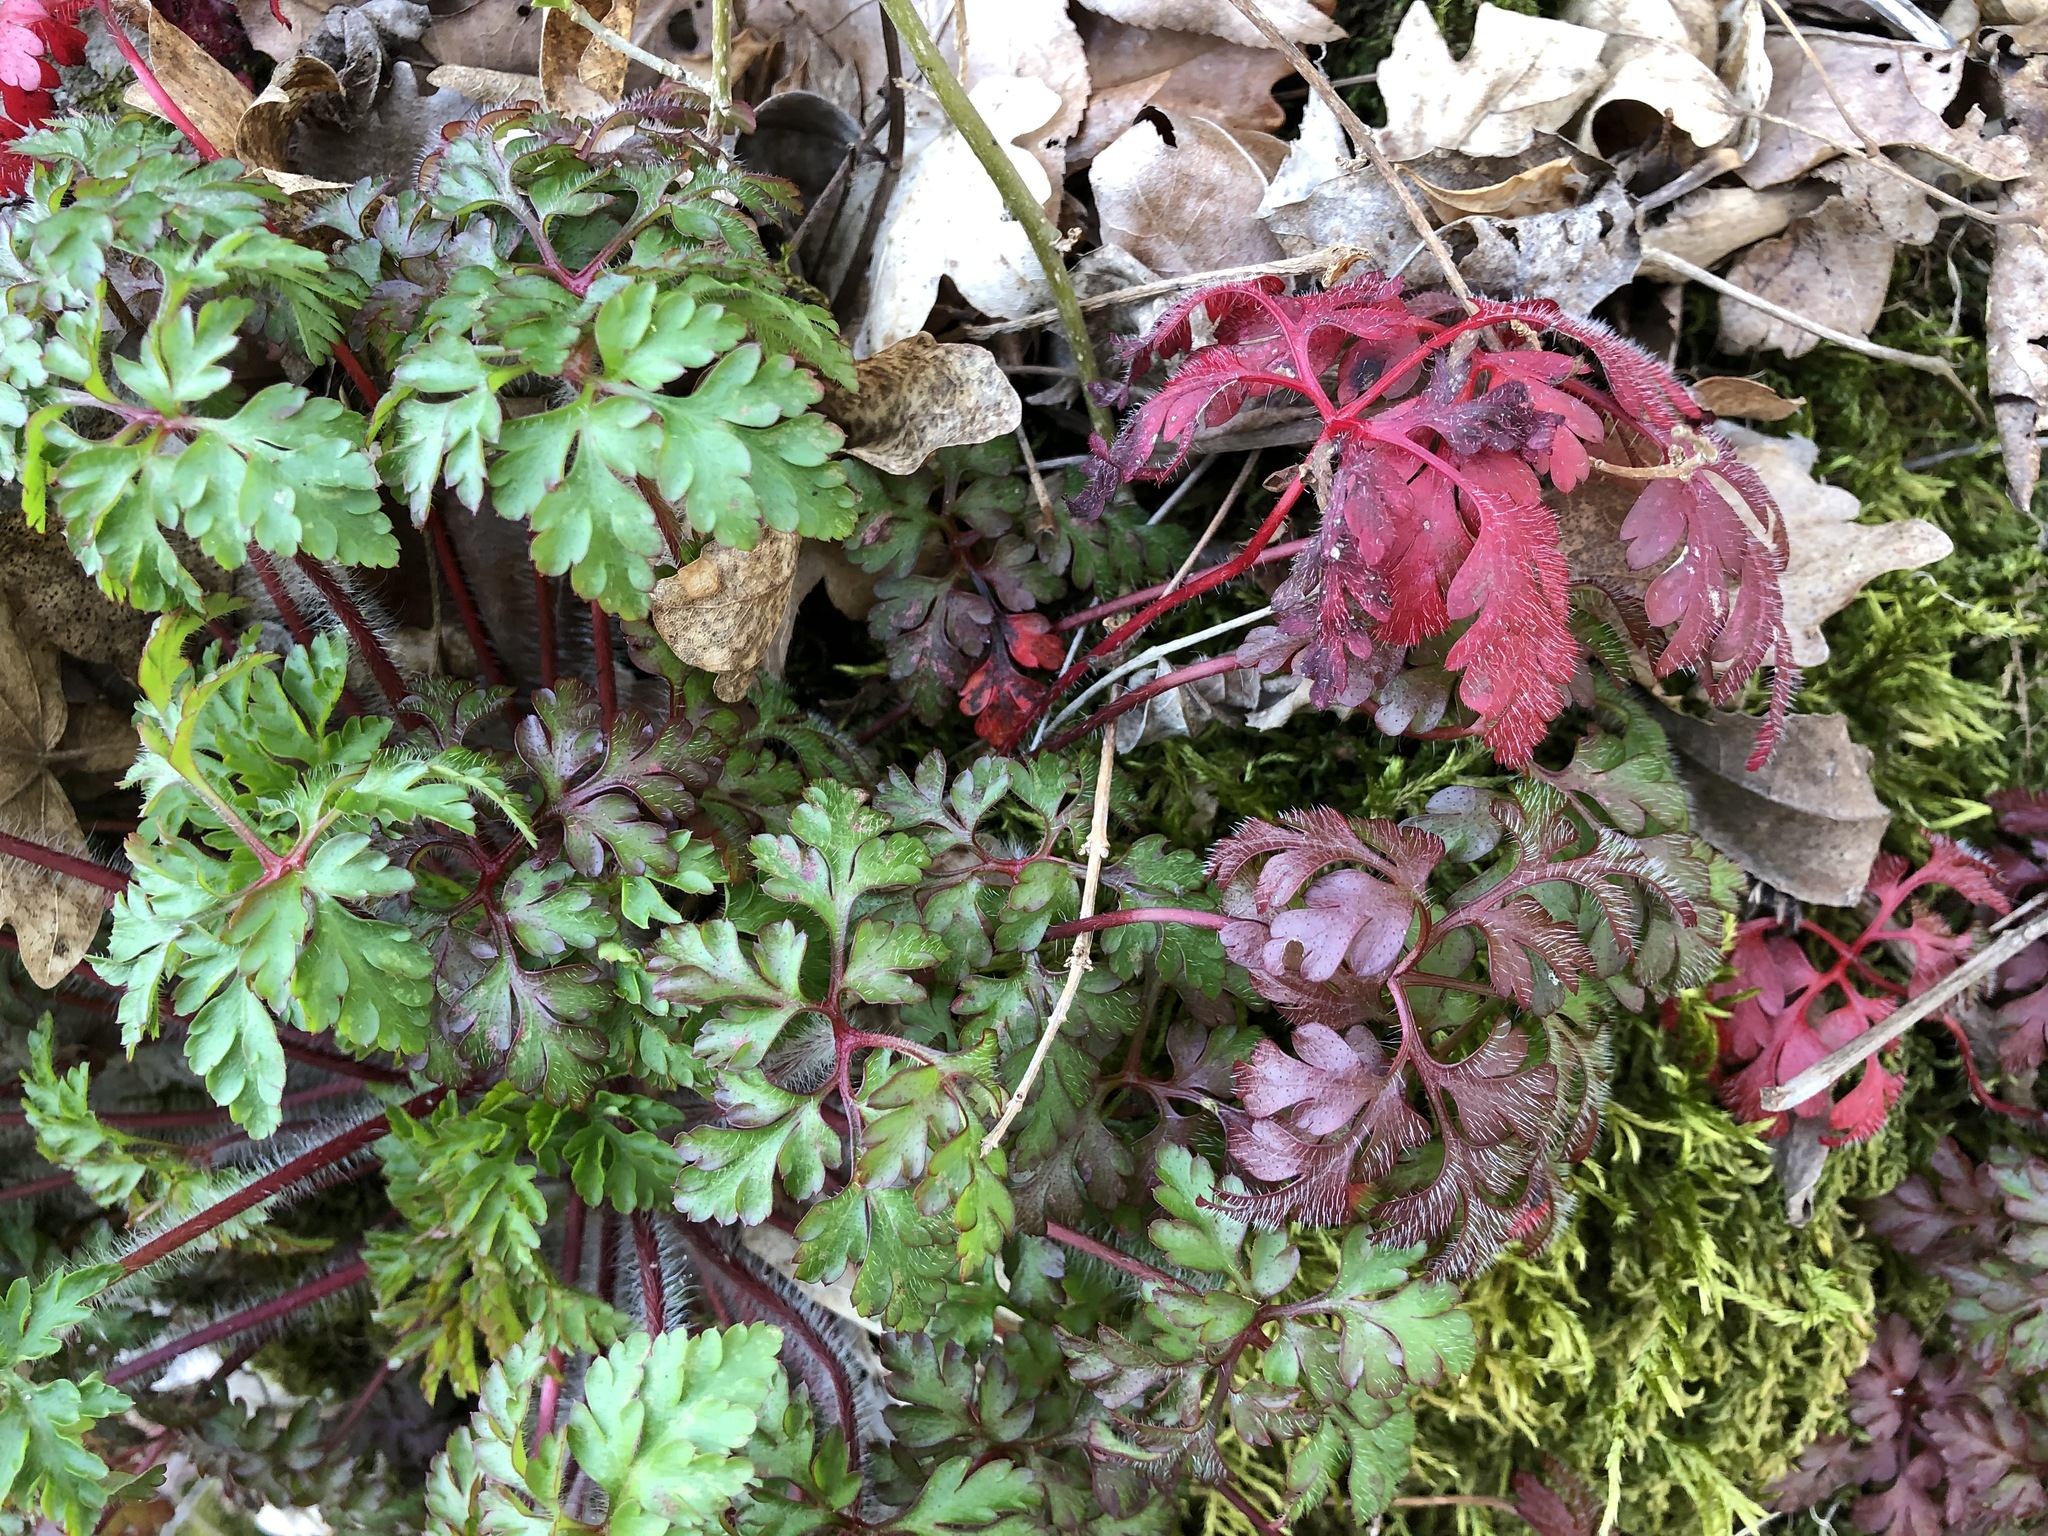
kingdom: Plantae
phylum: Tracheophyta
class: Magnoliopsida
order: Geraniales
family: Geraniaceae
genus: Geranium
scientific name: Geranium robertianum
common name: Herb-robert
